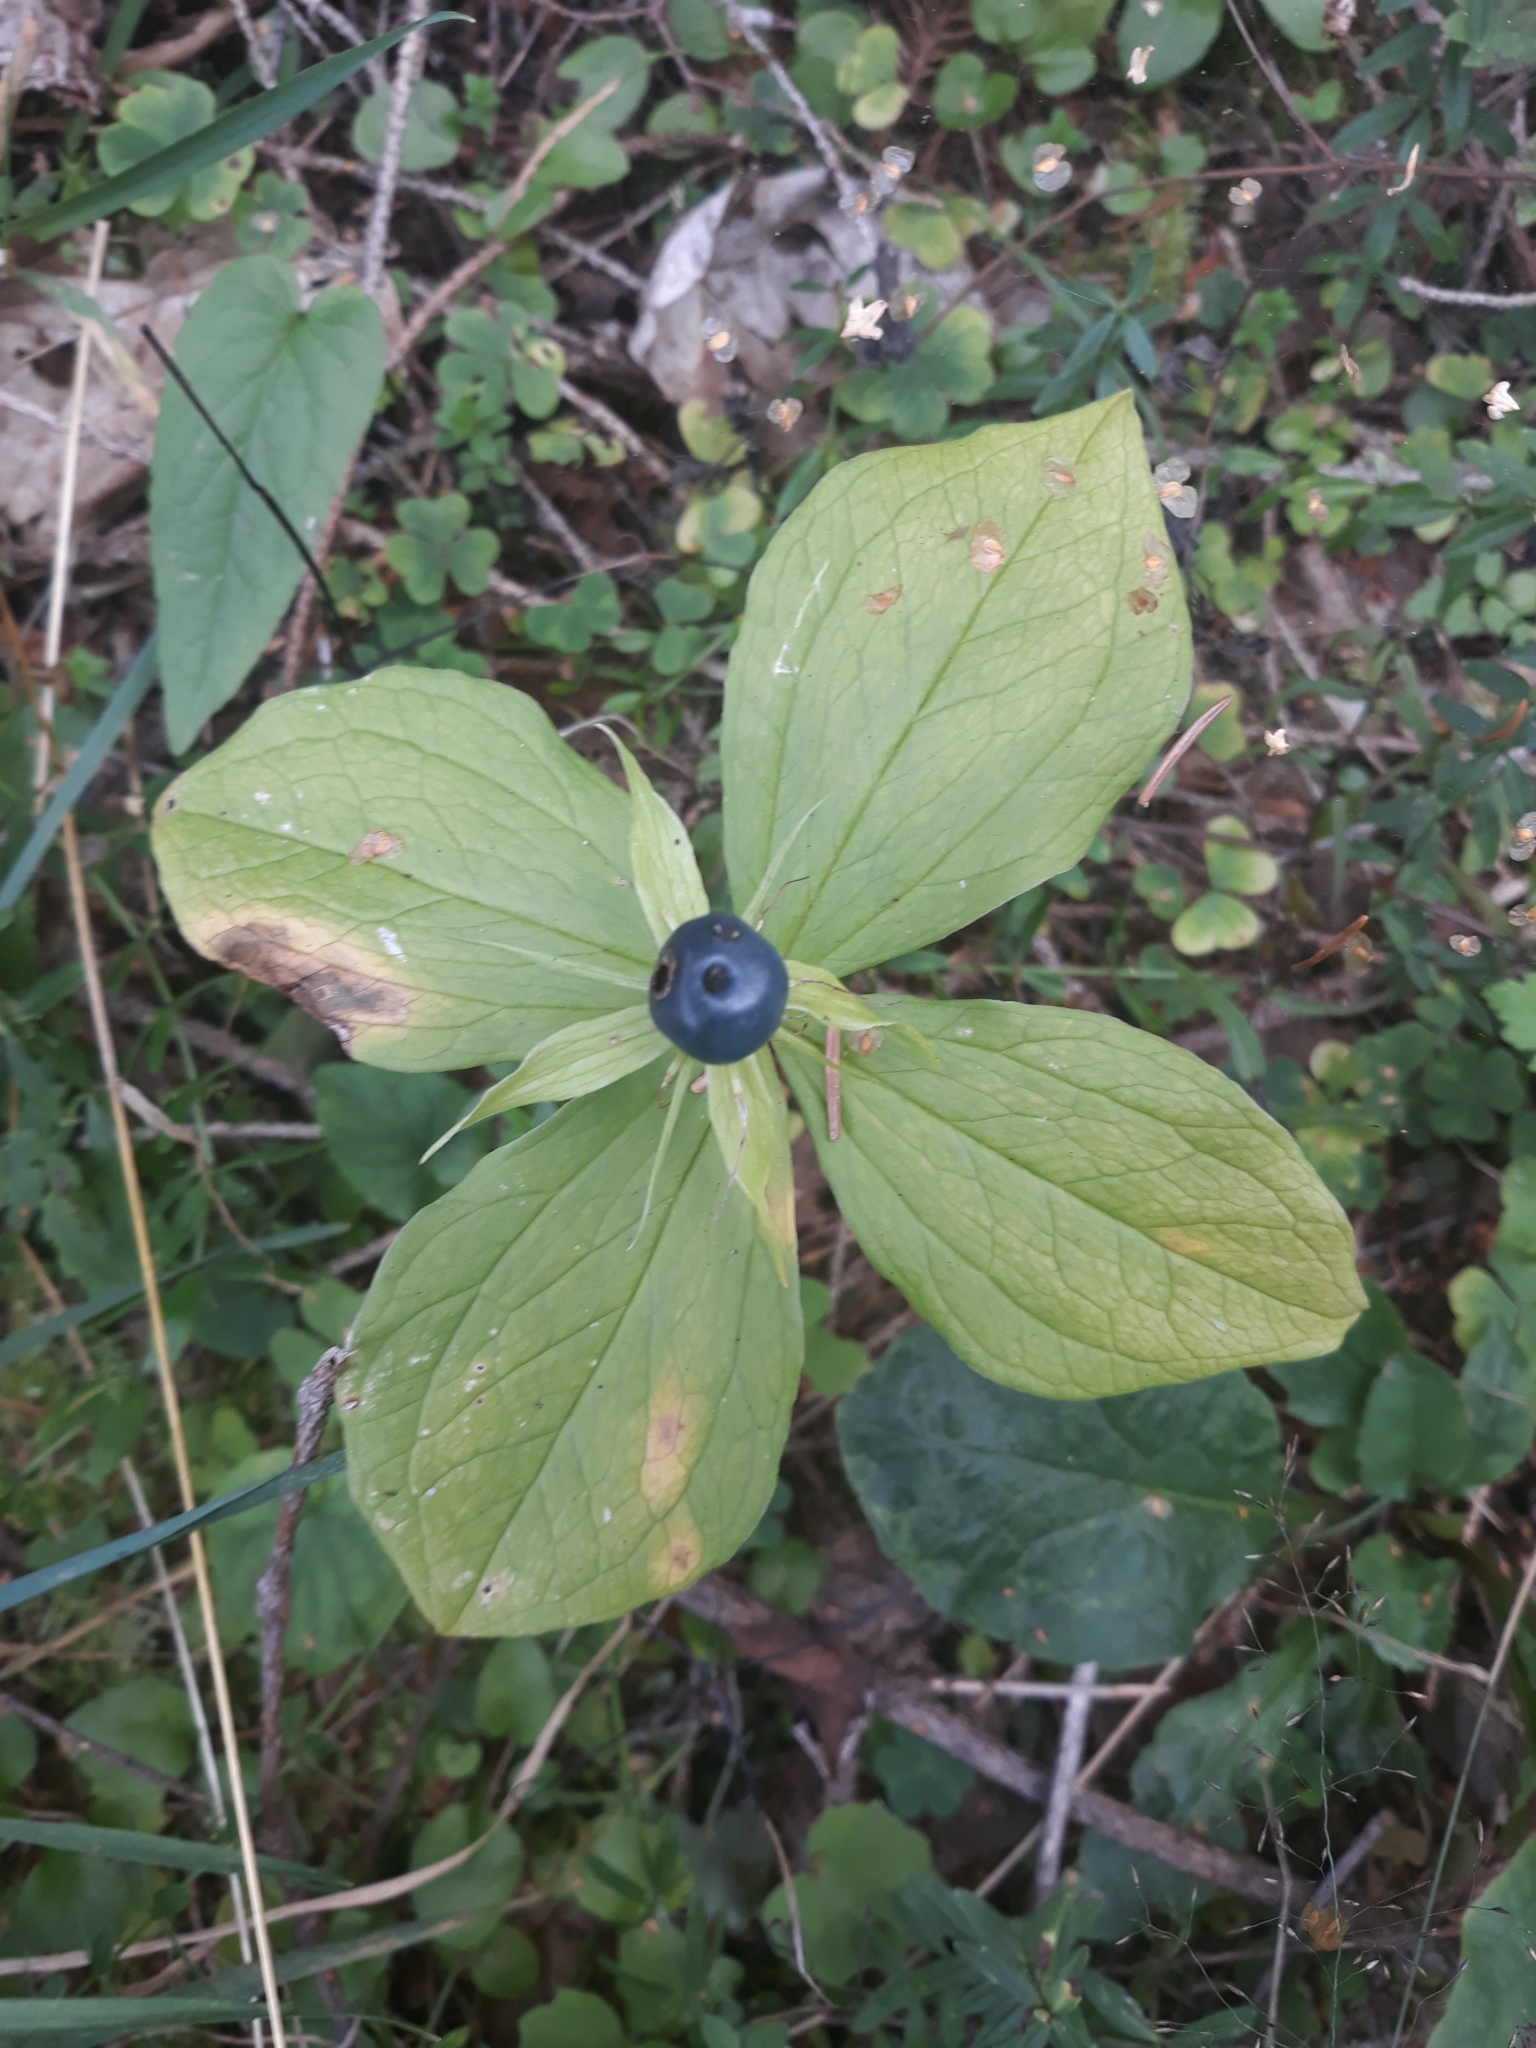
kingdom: Plantae
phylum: Tracheophyta
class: Liliopsida
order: Liliales
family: Melanthiaceae
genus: Paris
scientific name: Paris quadrifolia
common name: Herb-paris
